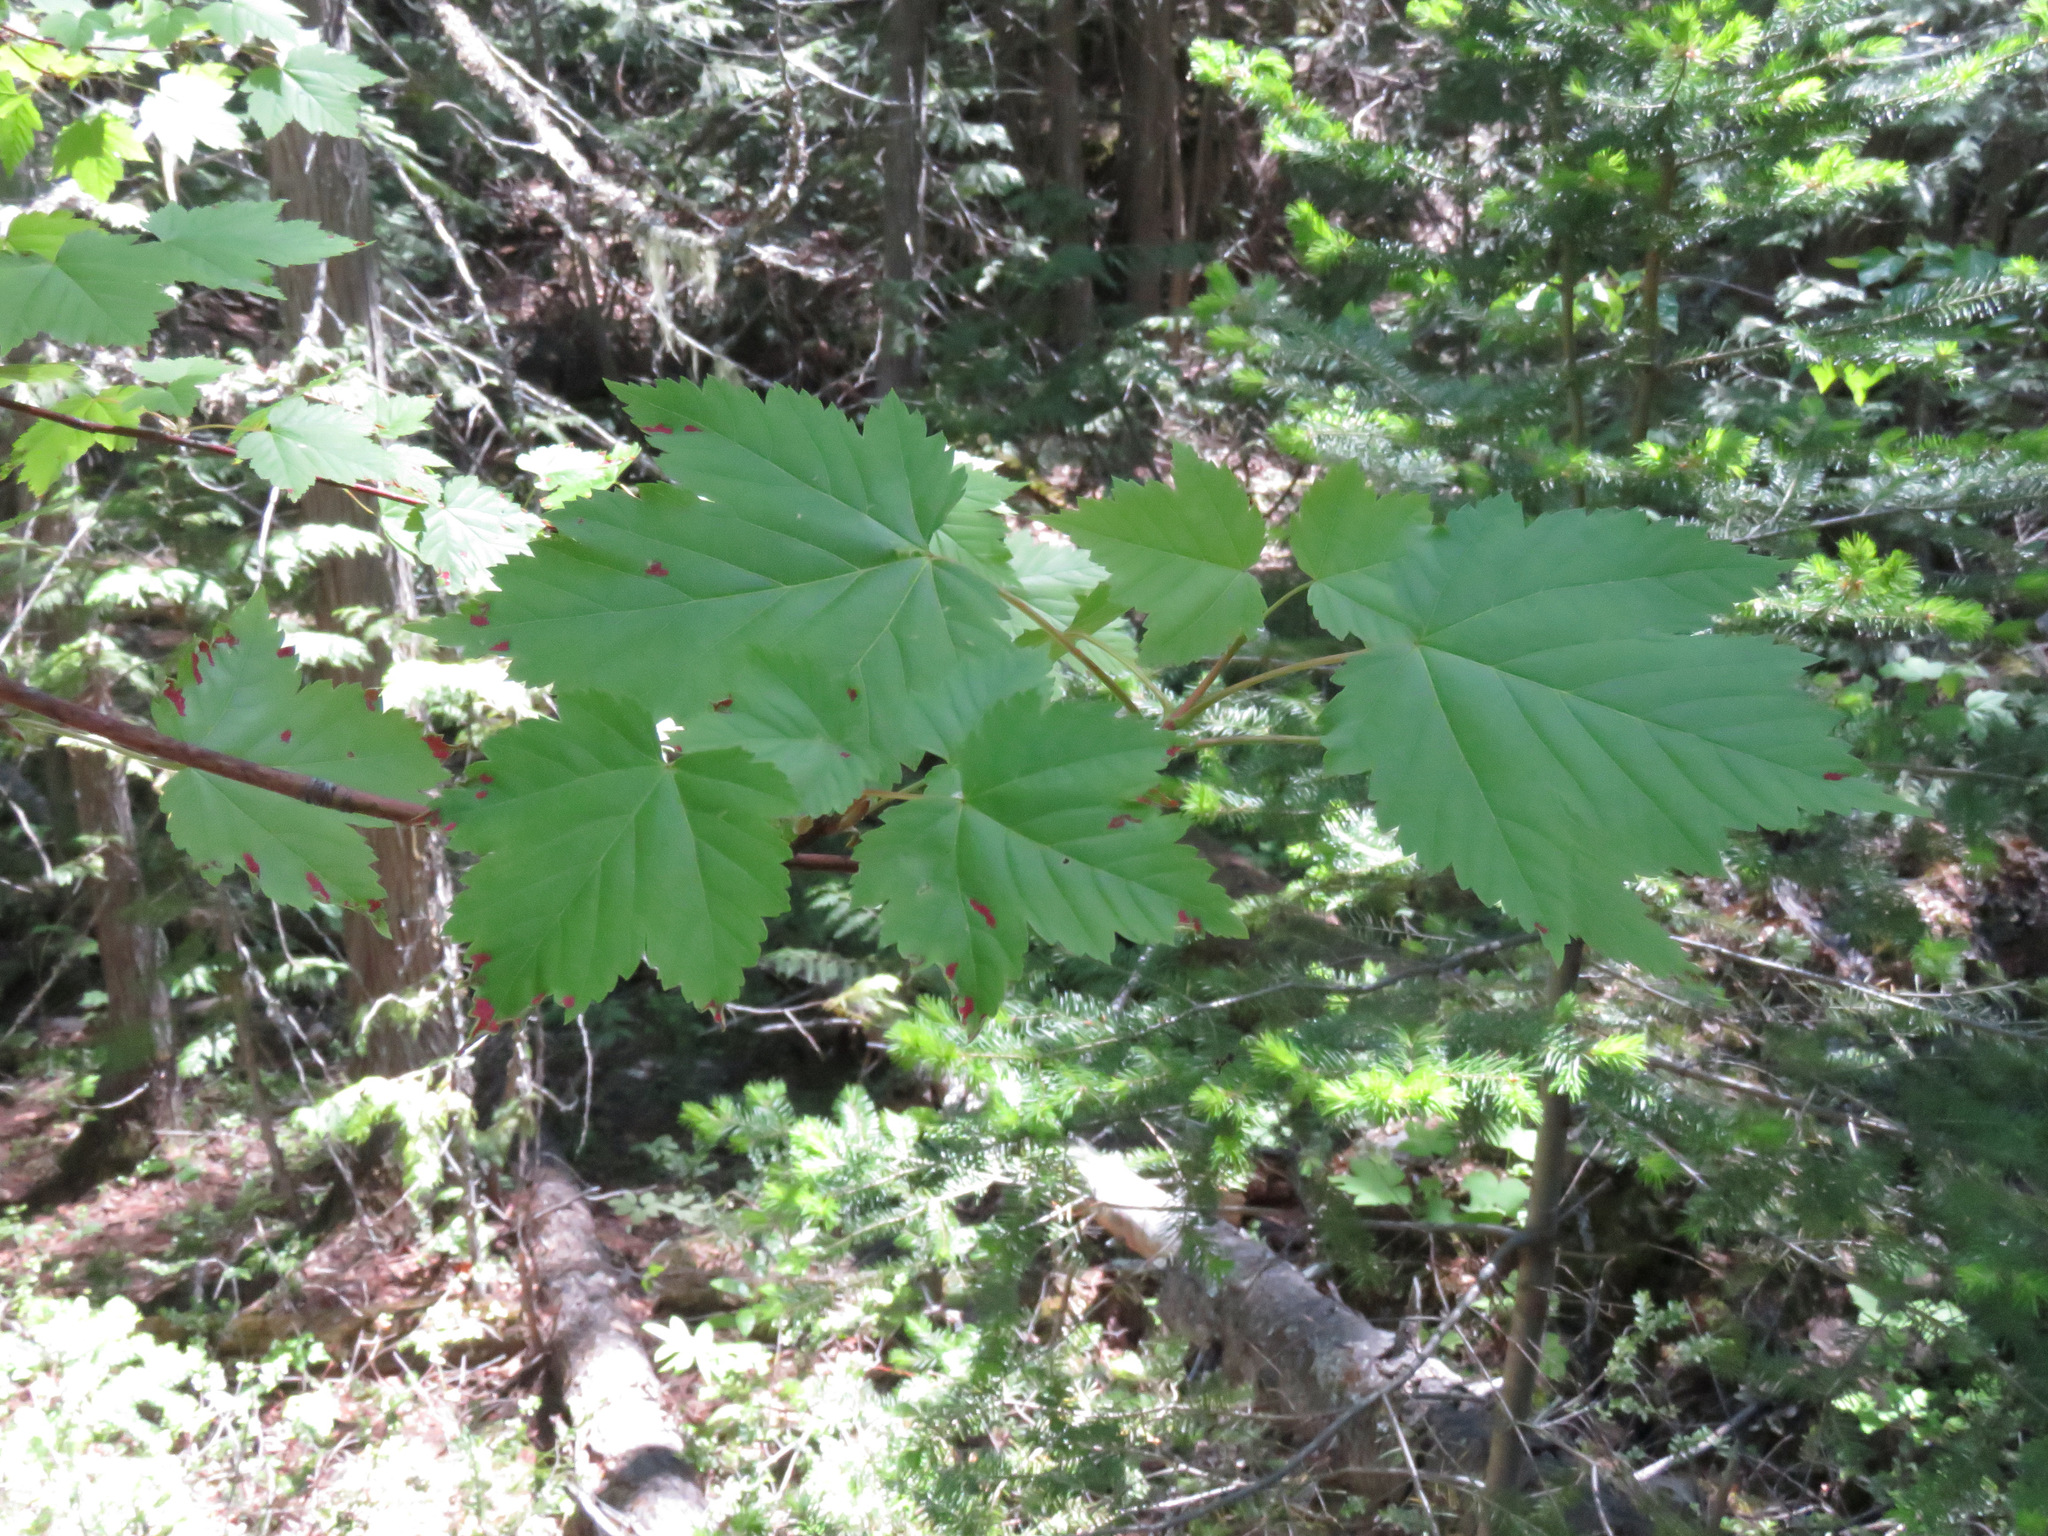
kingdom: Plantae
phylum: Tracheophyta
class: Magnoliopsida
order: Sapindales
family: Sapindaceae
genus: Acer
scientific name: Acer glabrum
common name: Rocky mountain maple
